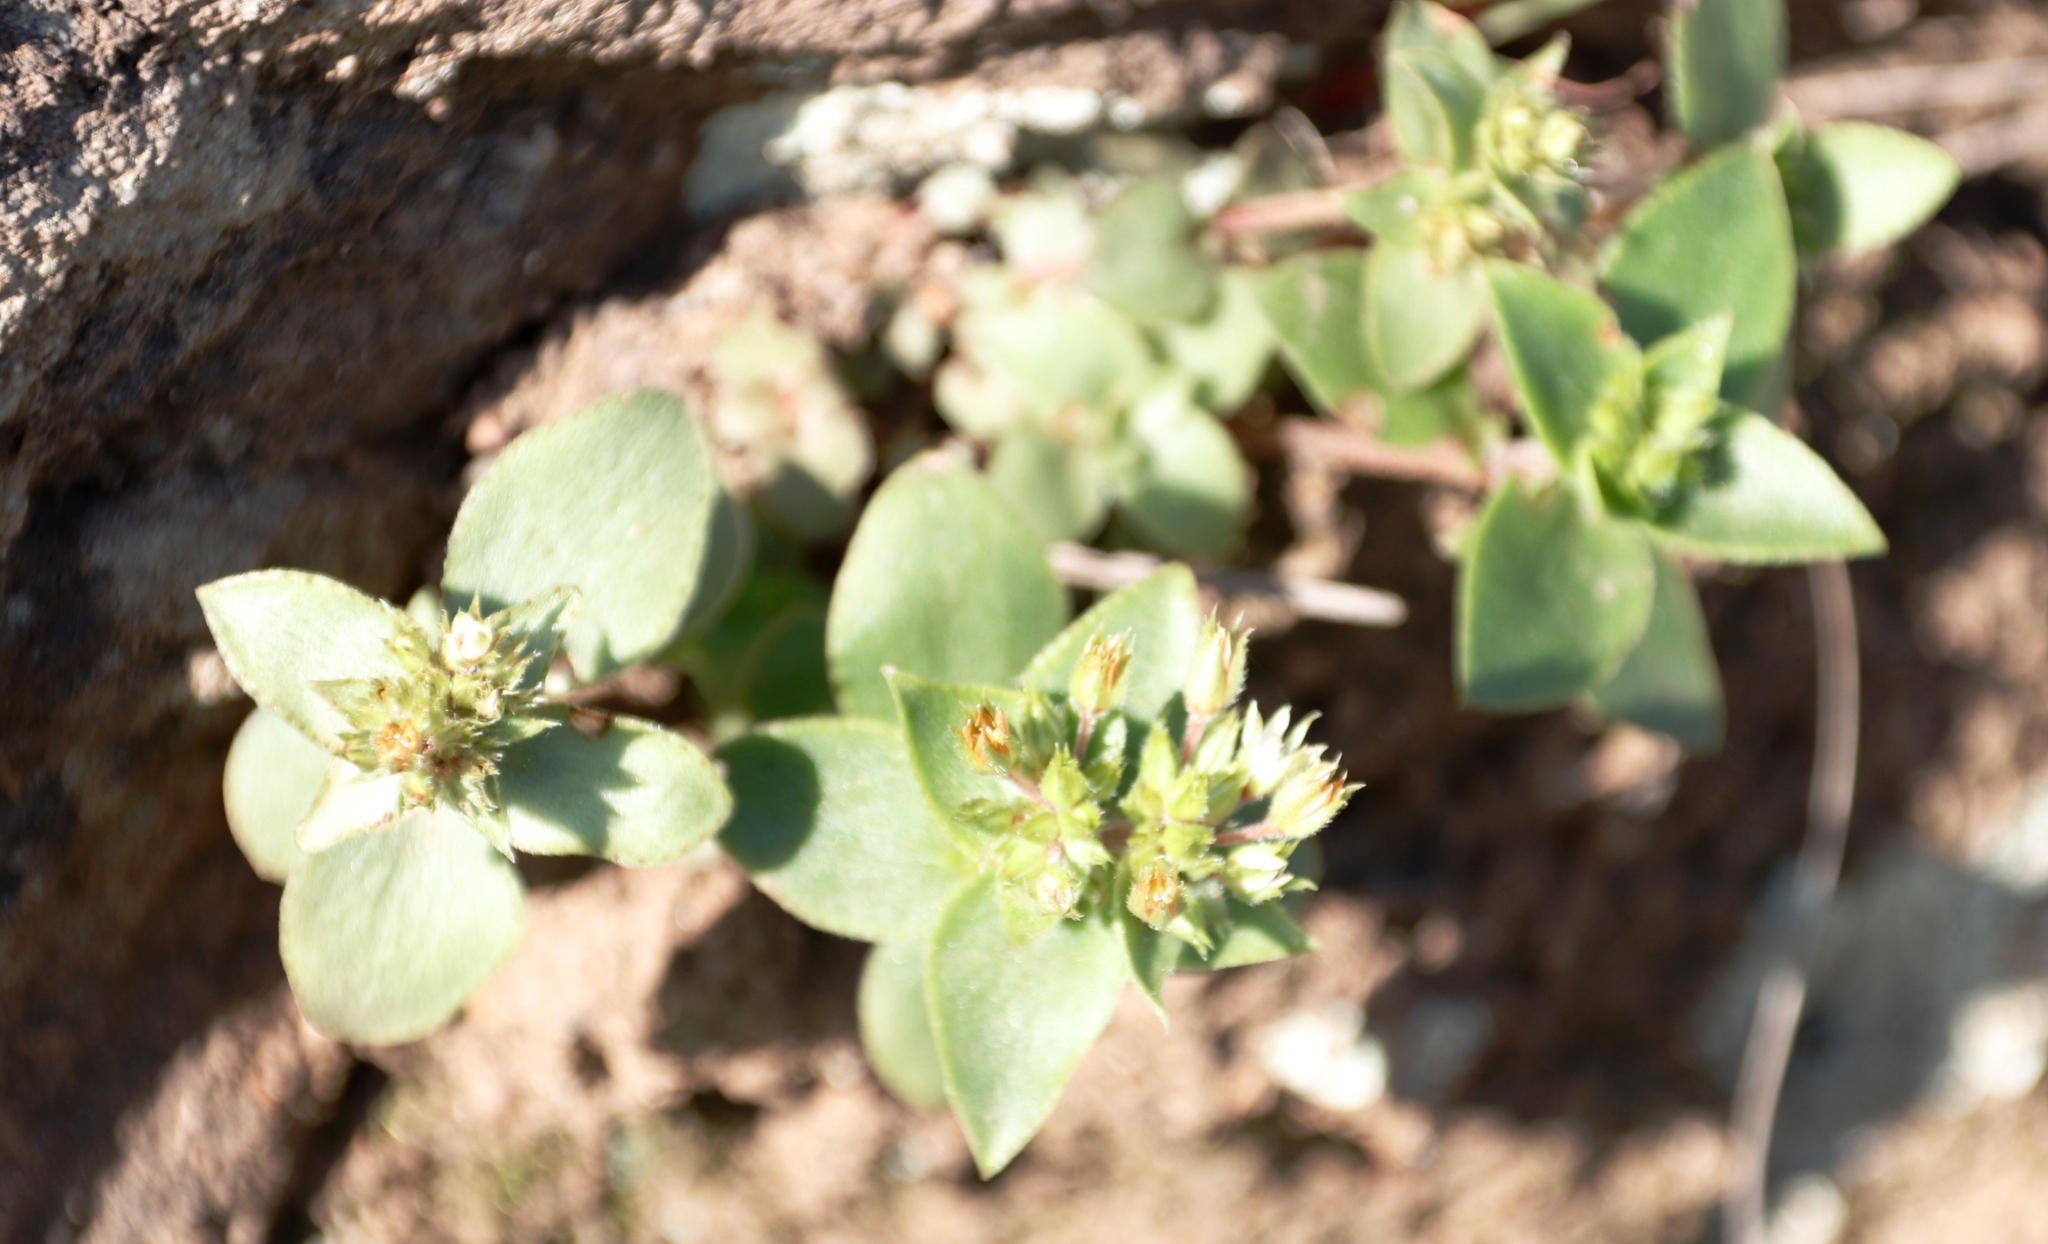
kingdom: Plantae
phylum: Tracheophyta
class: Magnoliopsida
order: Saxifragales
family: Crassulaceae
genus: Crassula
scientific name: Crassula pellucida
